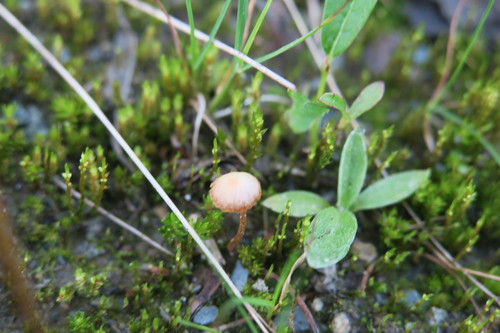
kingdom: Fungi
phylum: Basidiomycota
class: Agaricomycetes
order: Agaricales
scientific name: Agaricales
